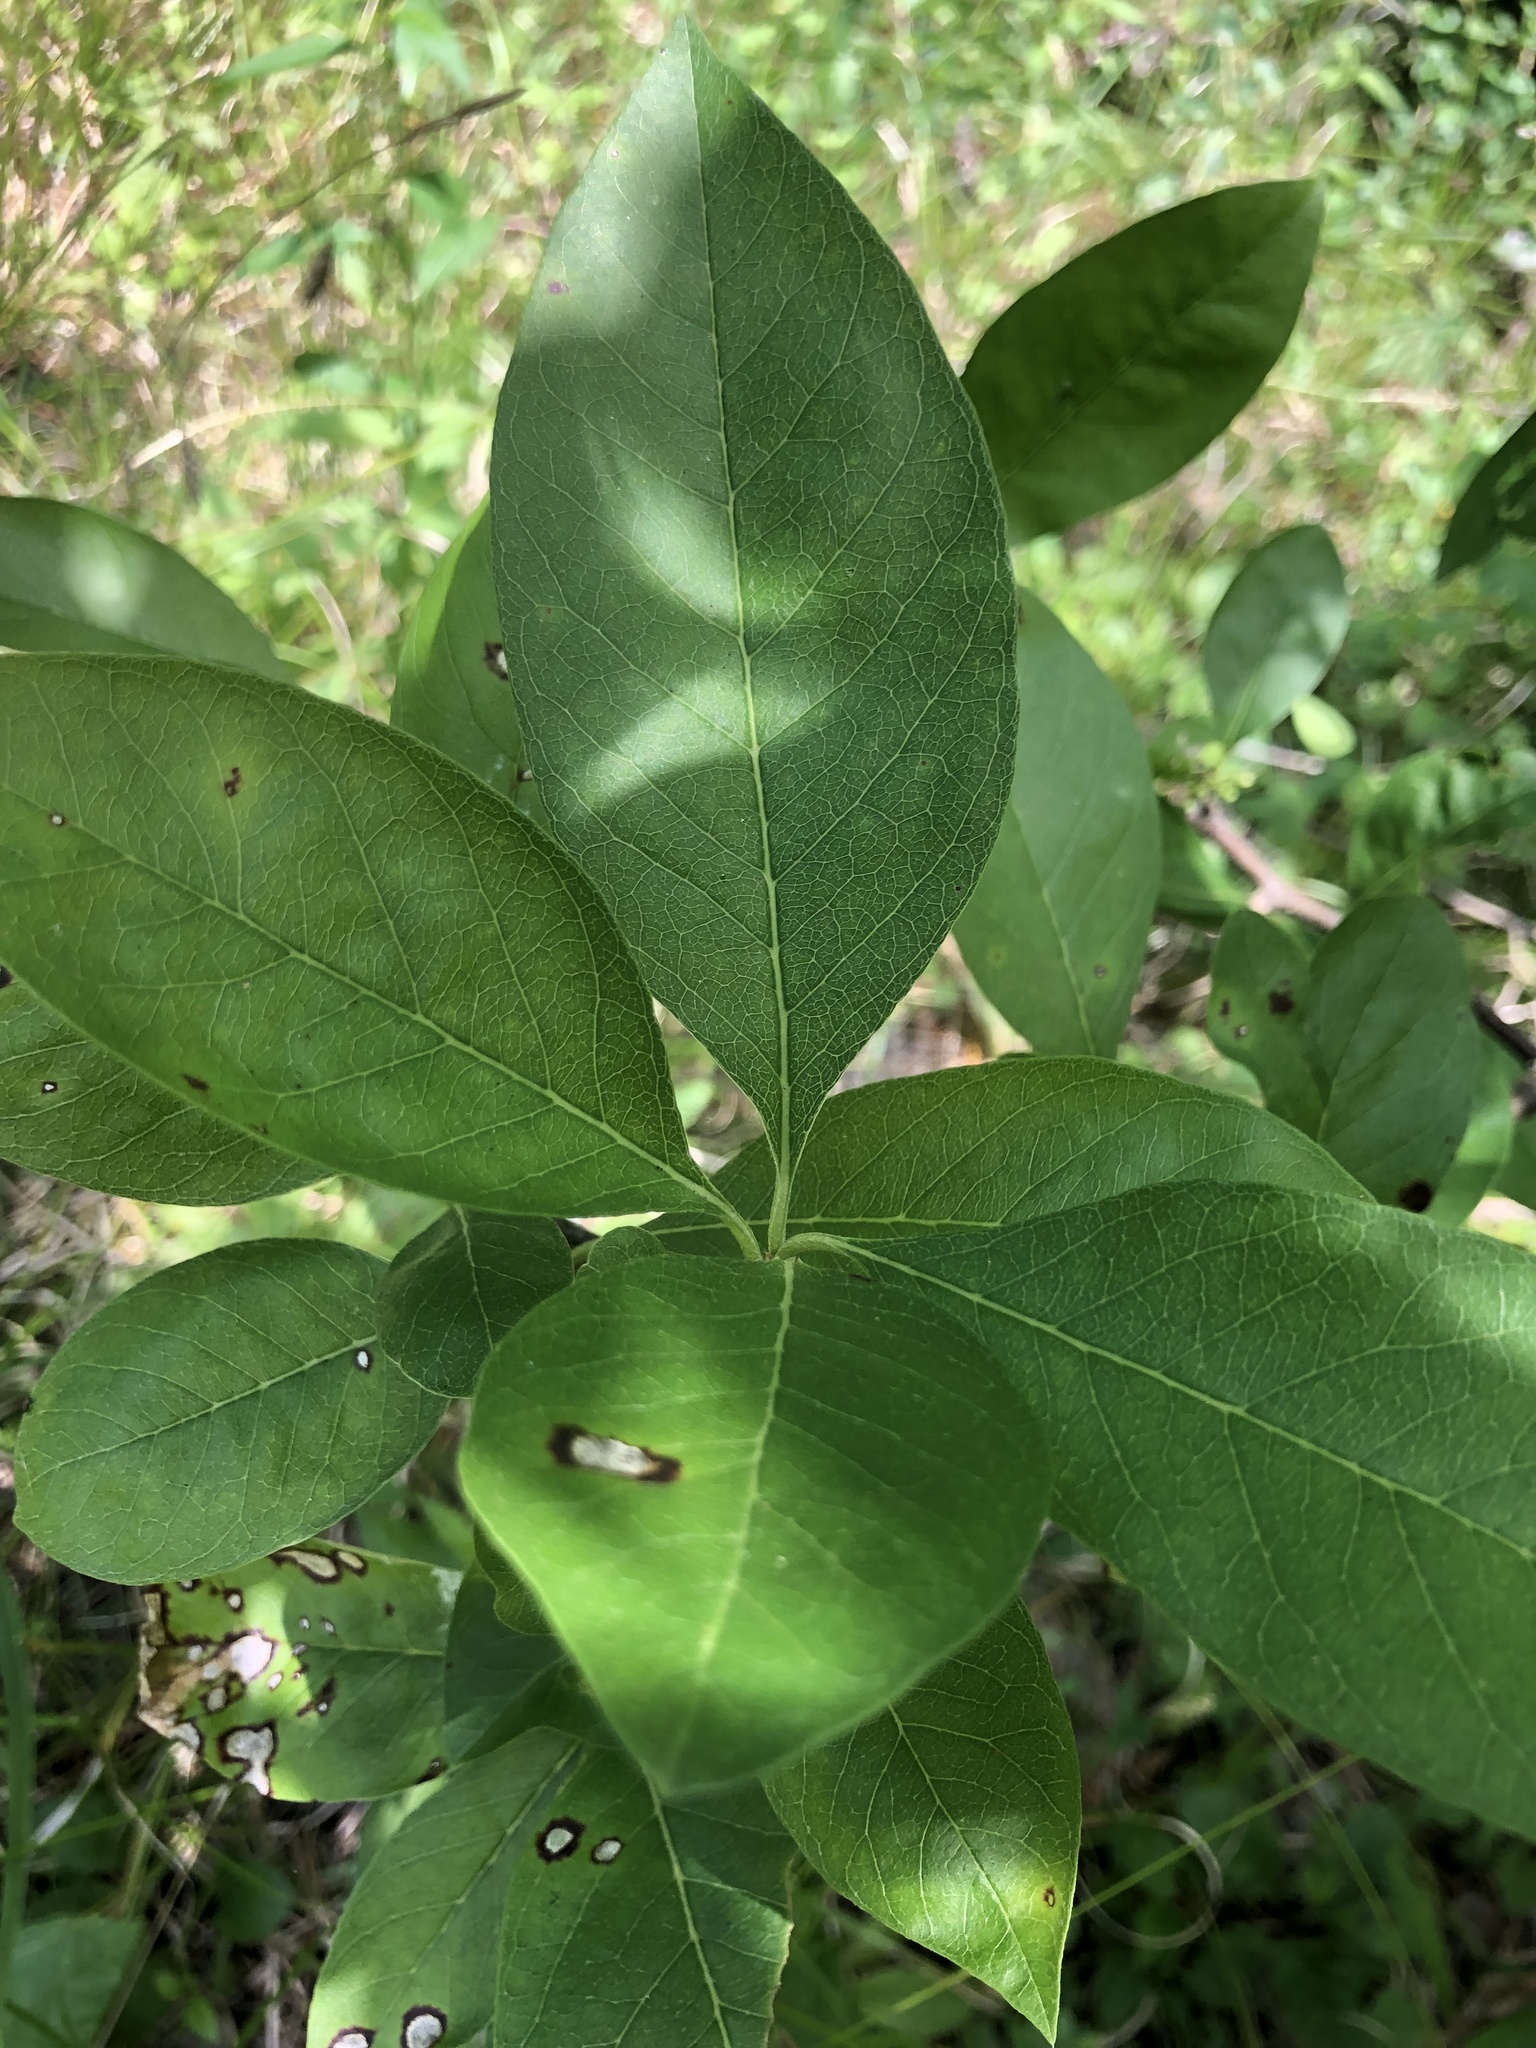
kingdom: Plantae
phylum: Tracheophyta
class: Magnoliopsida
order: Ericales
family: Sapotaceae
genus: Sideroxylon
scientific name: Sideroxylon lycioides
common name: Buckthorn bumelia
